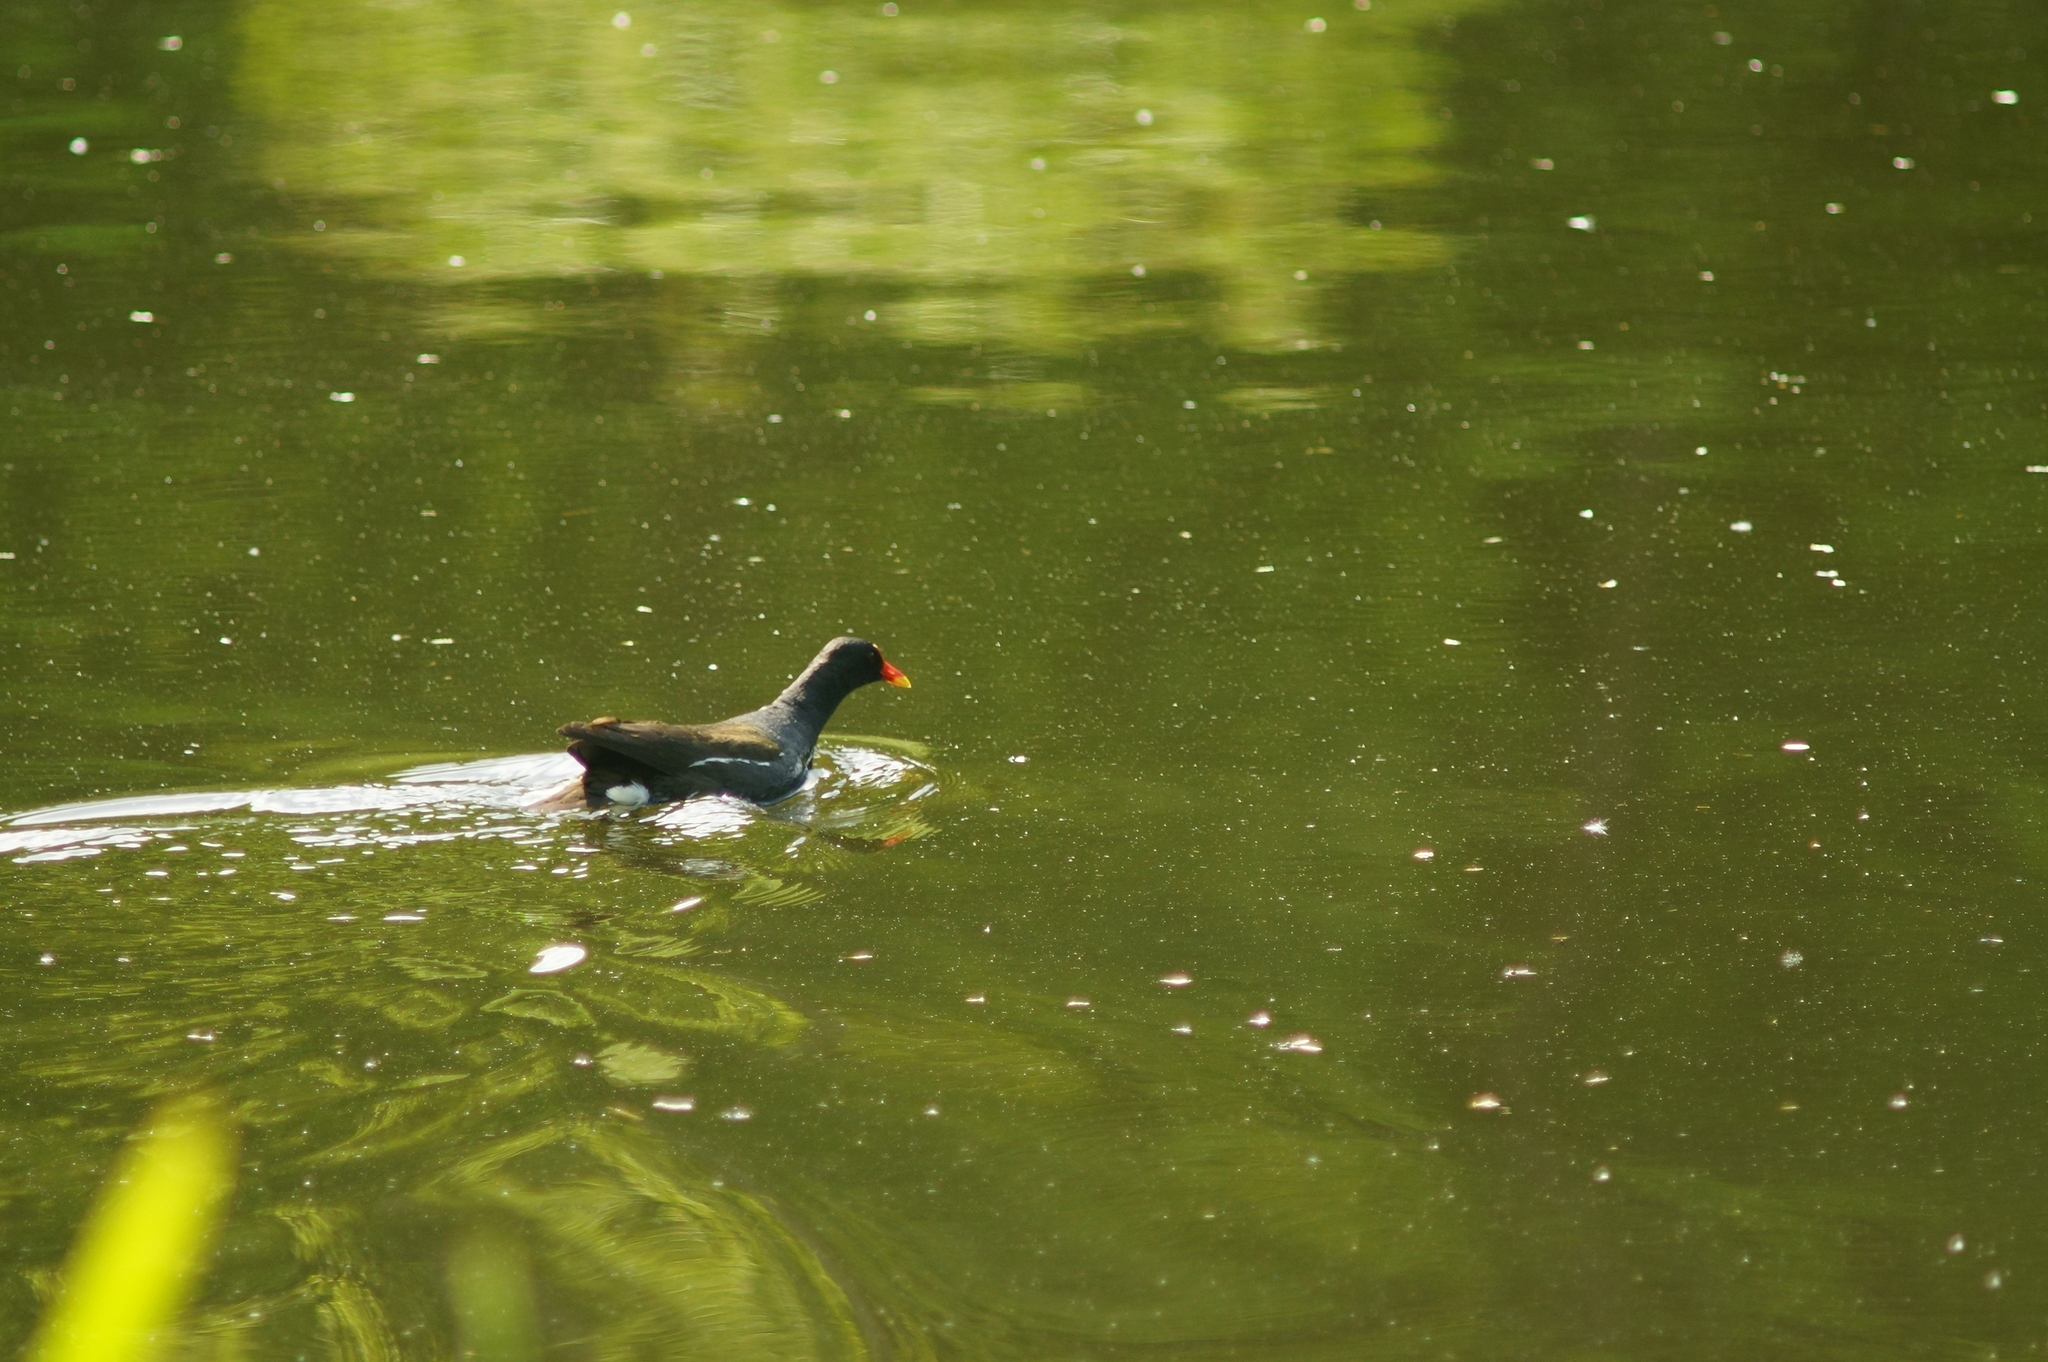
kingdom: Animalia
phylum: Chordata
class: Aves
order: Gruiformes
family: Rallidae
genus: Gallinula
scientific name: Gallinula chloropus
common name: Common moorhen
